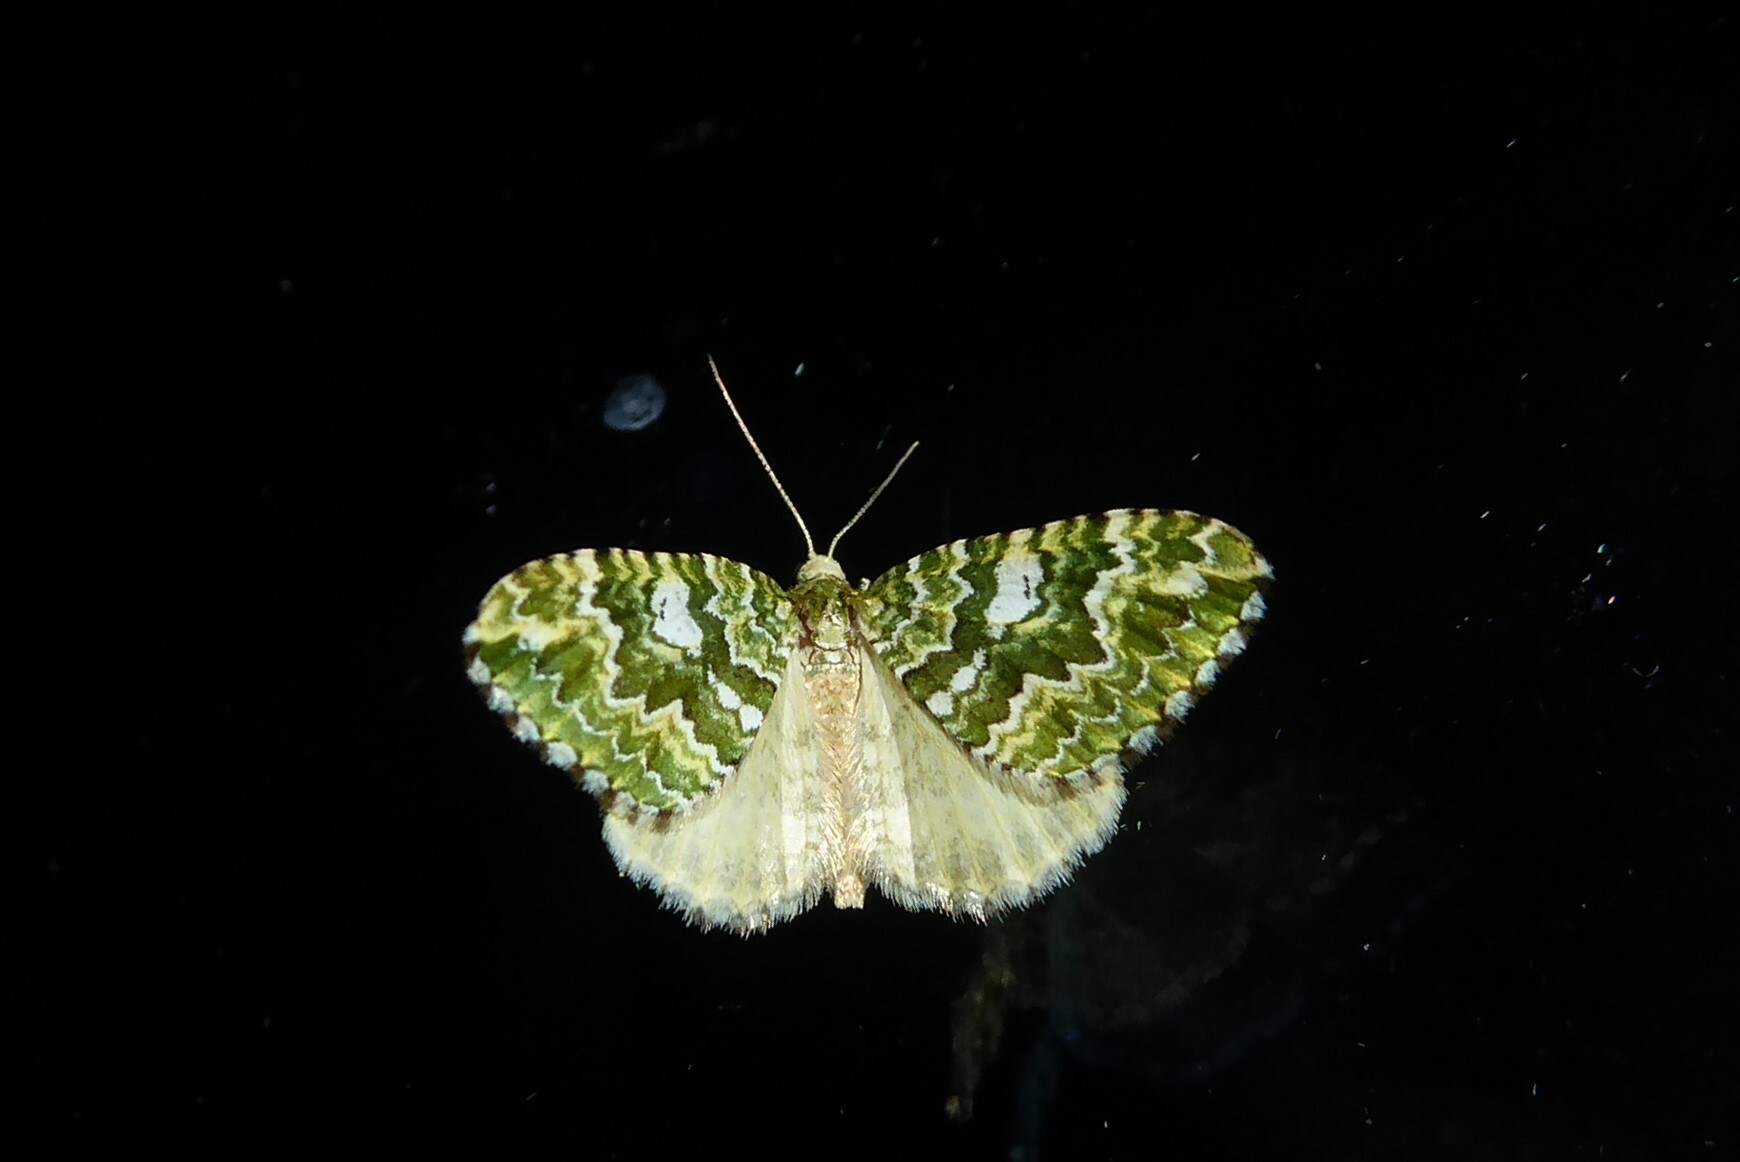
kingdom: Animalia
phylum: Arthropoda
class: Insecta
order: Lepidoptera
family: Geometridae
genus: Asaphodes
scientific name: Asaphodes beata
